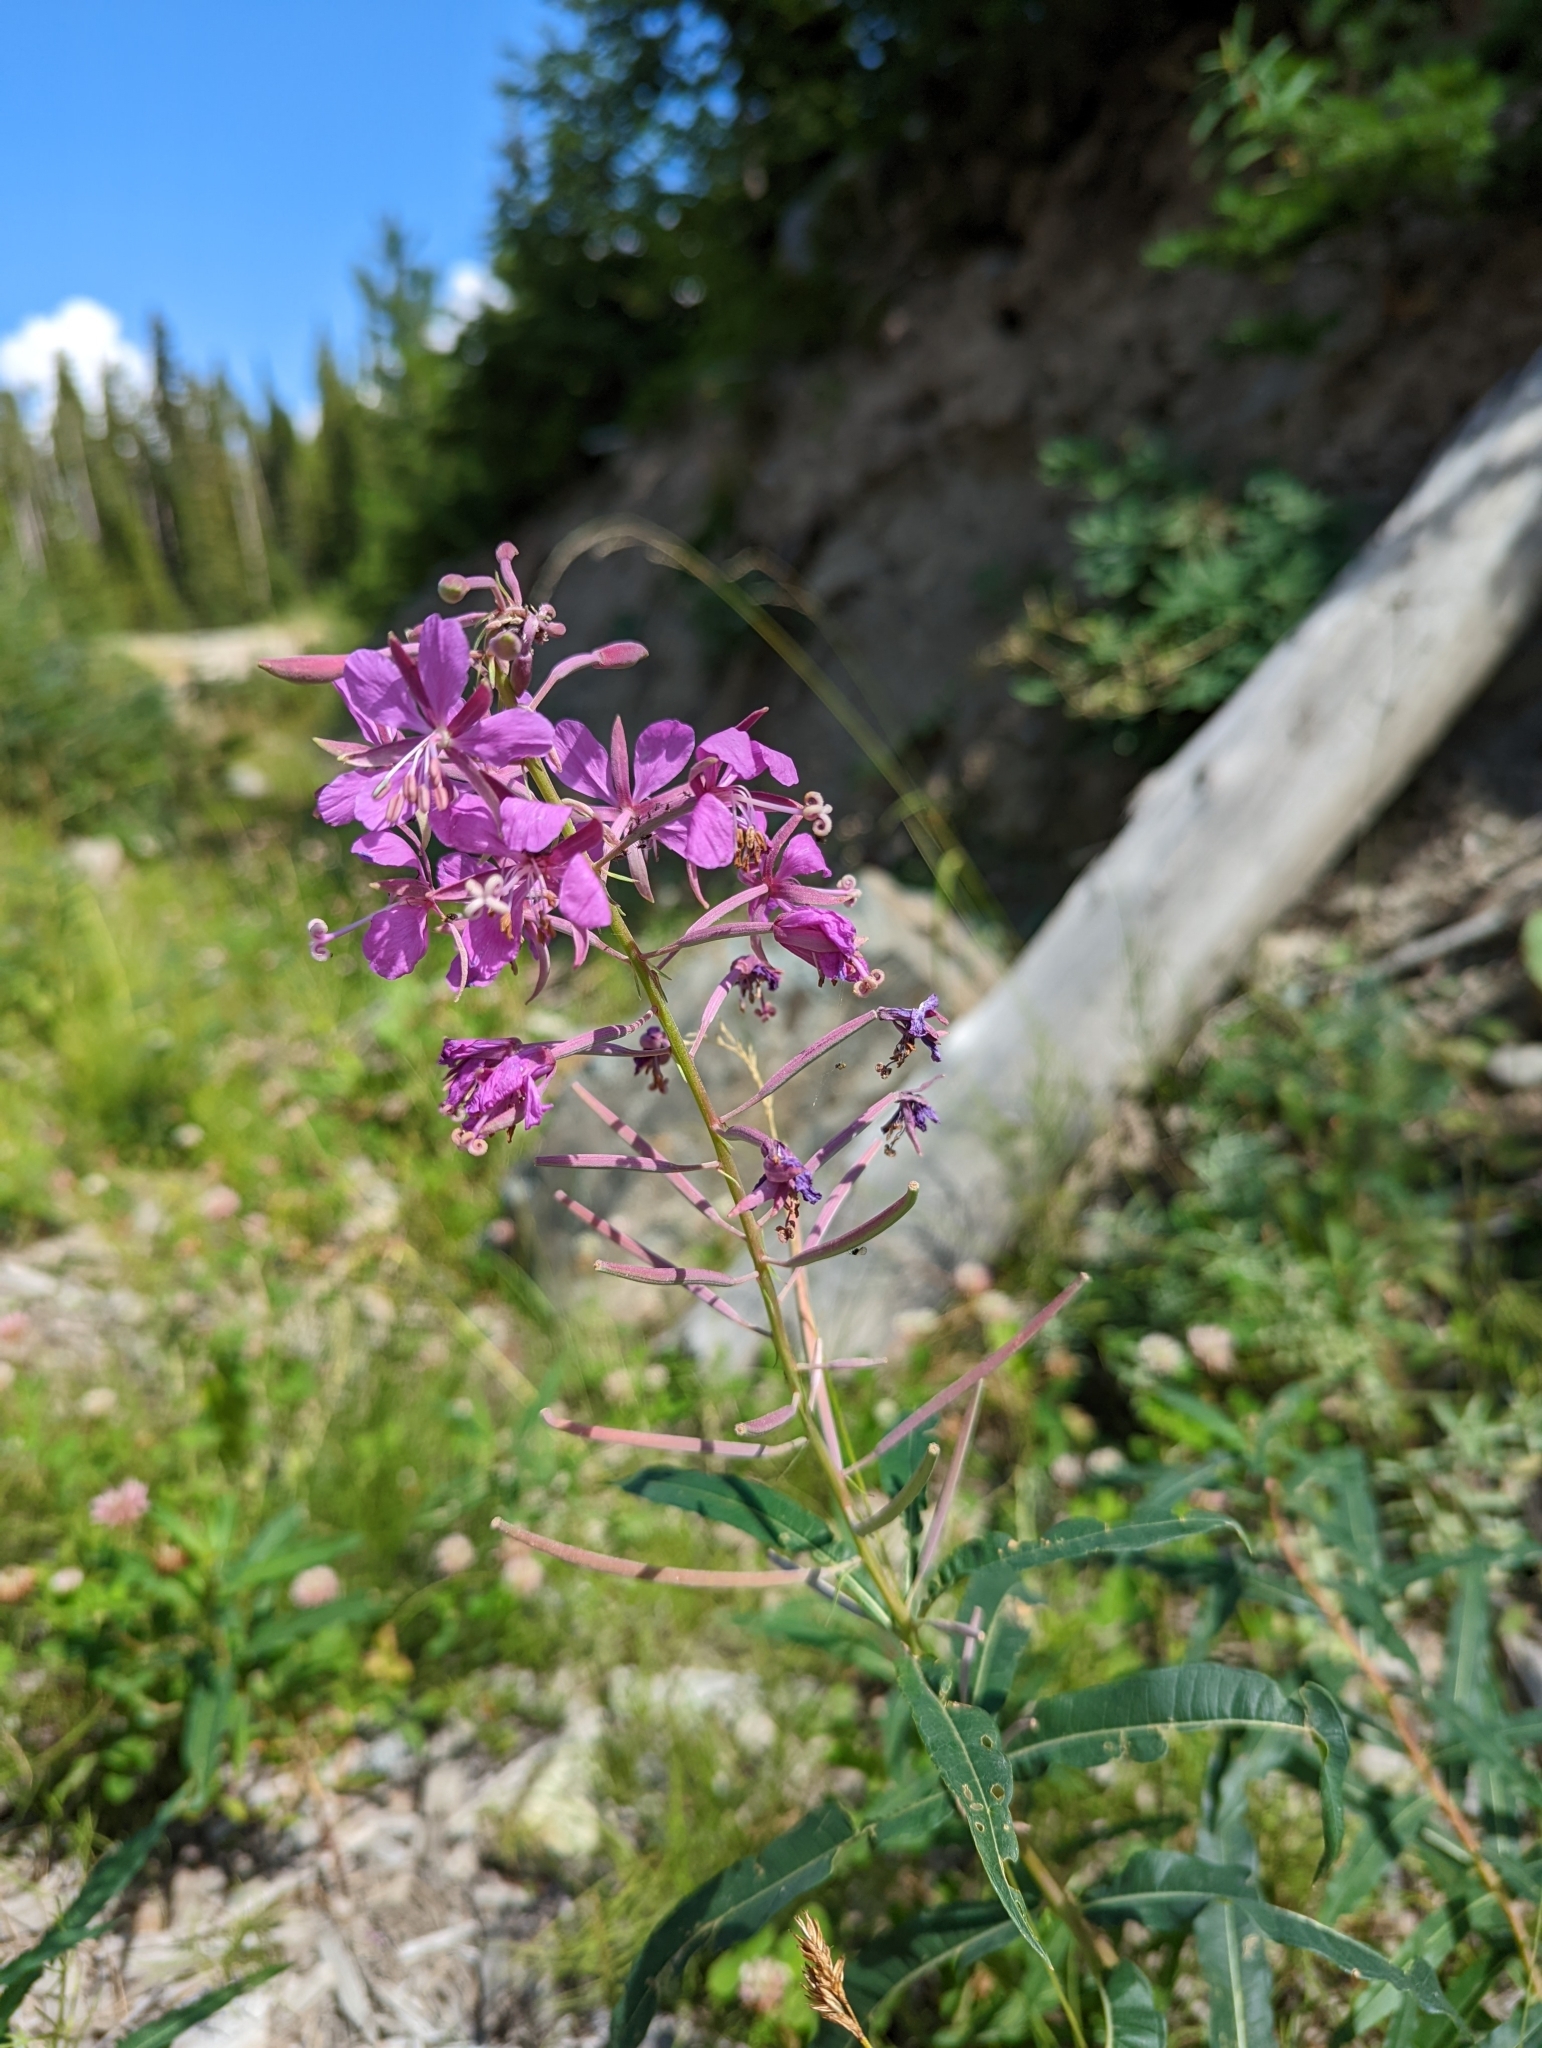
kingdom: Plantae
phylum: Tracheophyta
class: Magnoliopsida
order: Myrtales
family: Onagraceae
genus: Chamaenerion
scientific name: Chamaenerion angustifolium
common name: Fireweed
